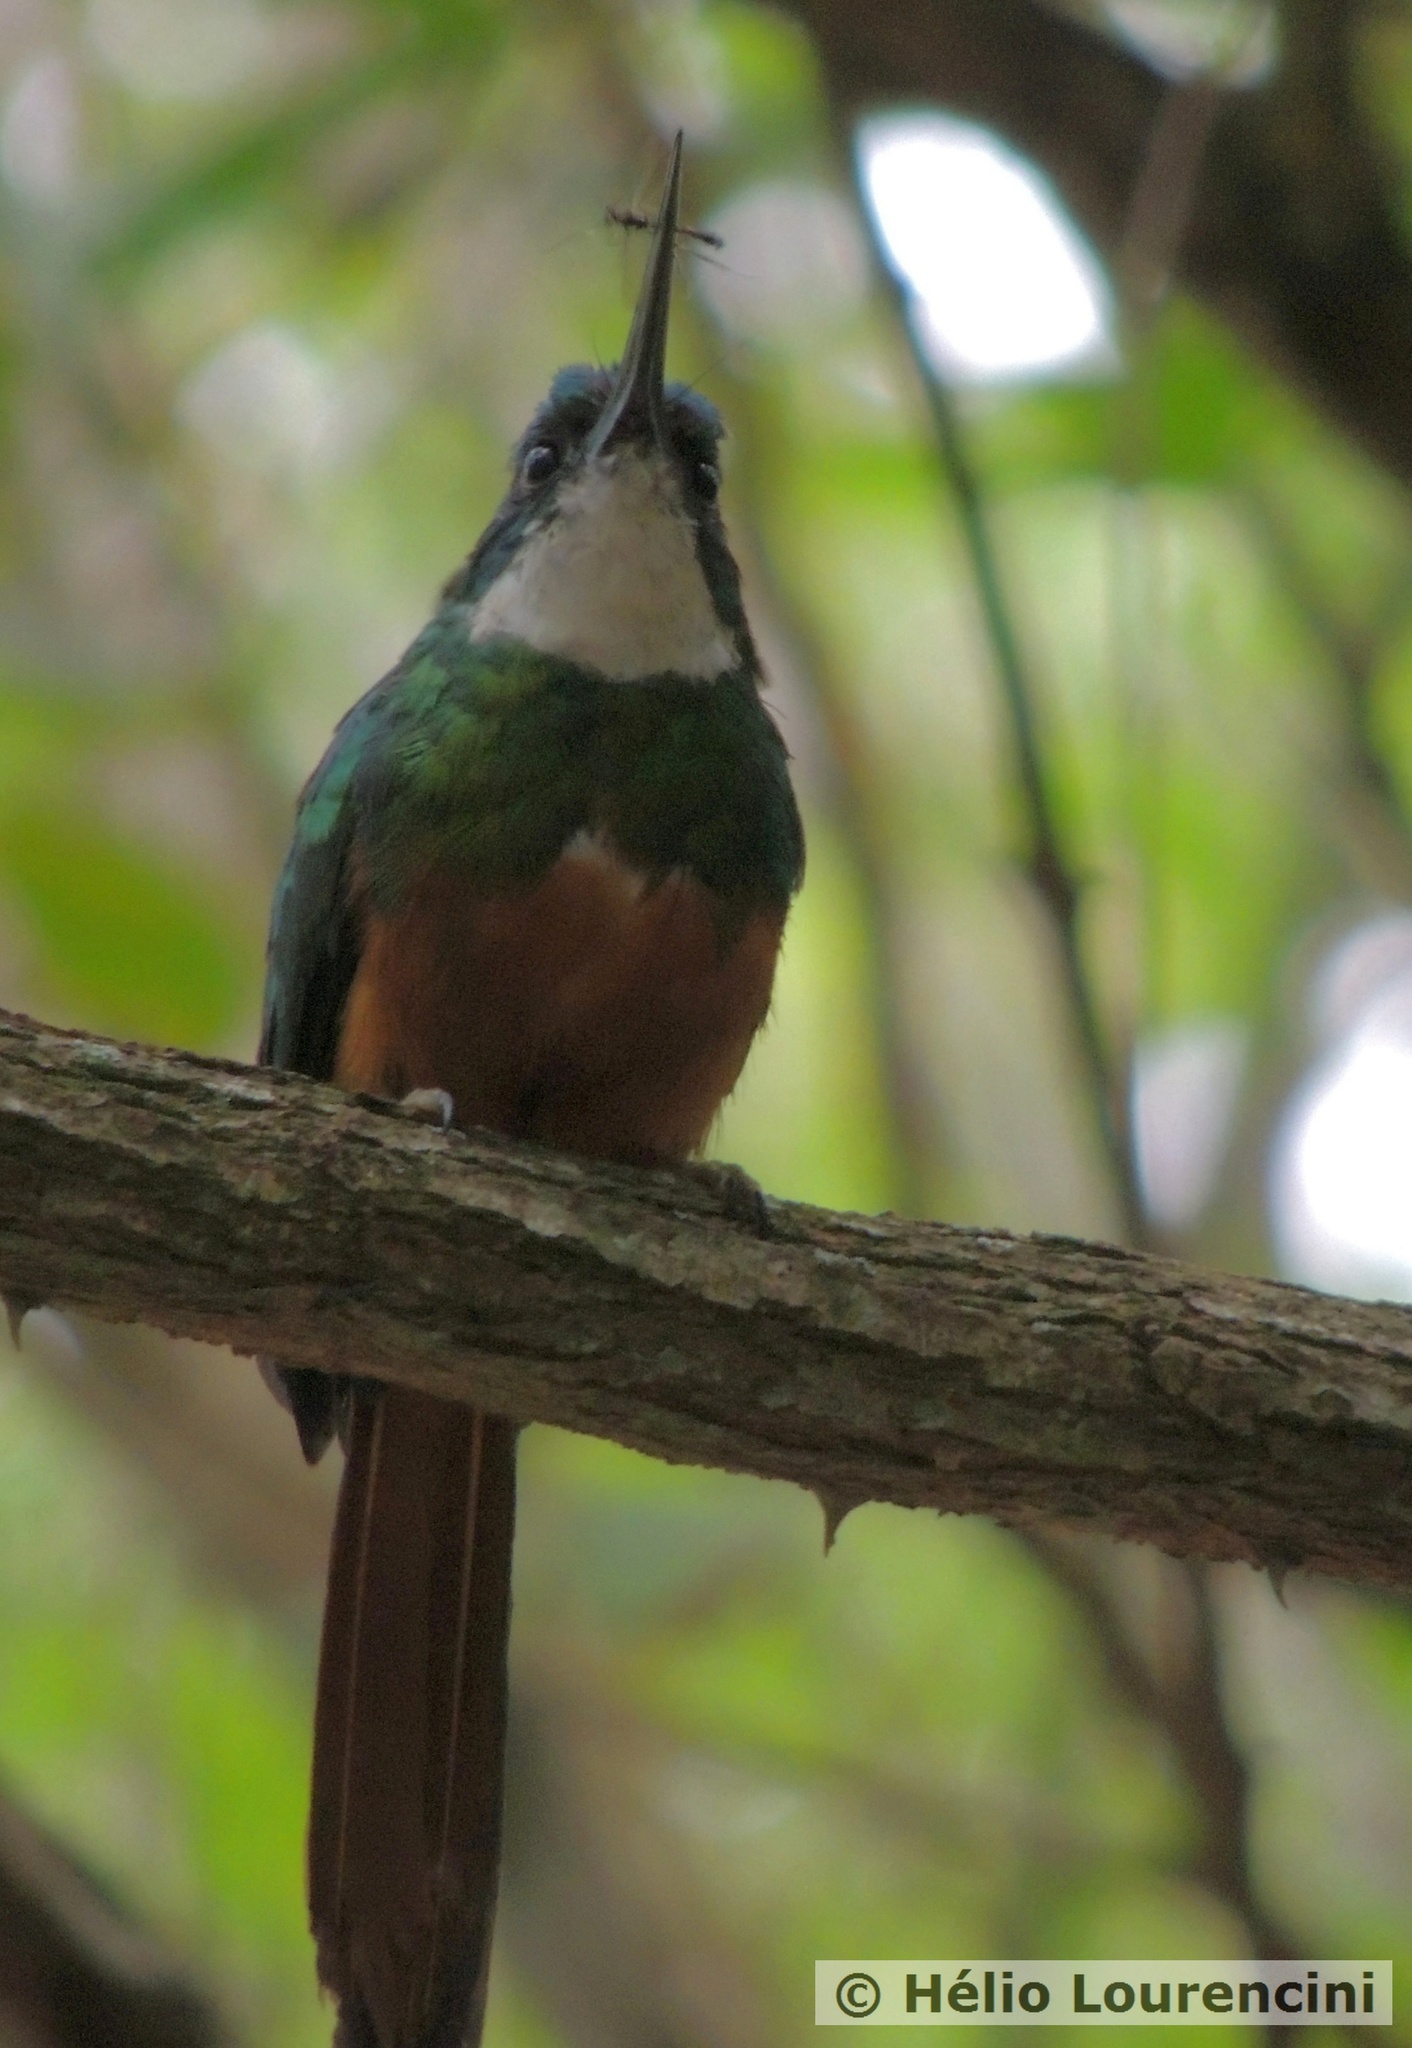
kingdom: Animalia
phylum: Chordata
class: Aves
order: Piciformes
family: Galbulidae
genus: Galbula
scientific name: Galbula ruficauda
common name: Rufous-tailed jacamar
